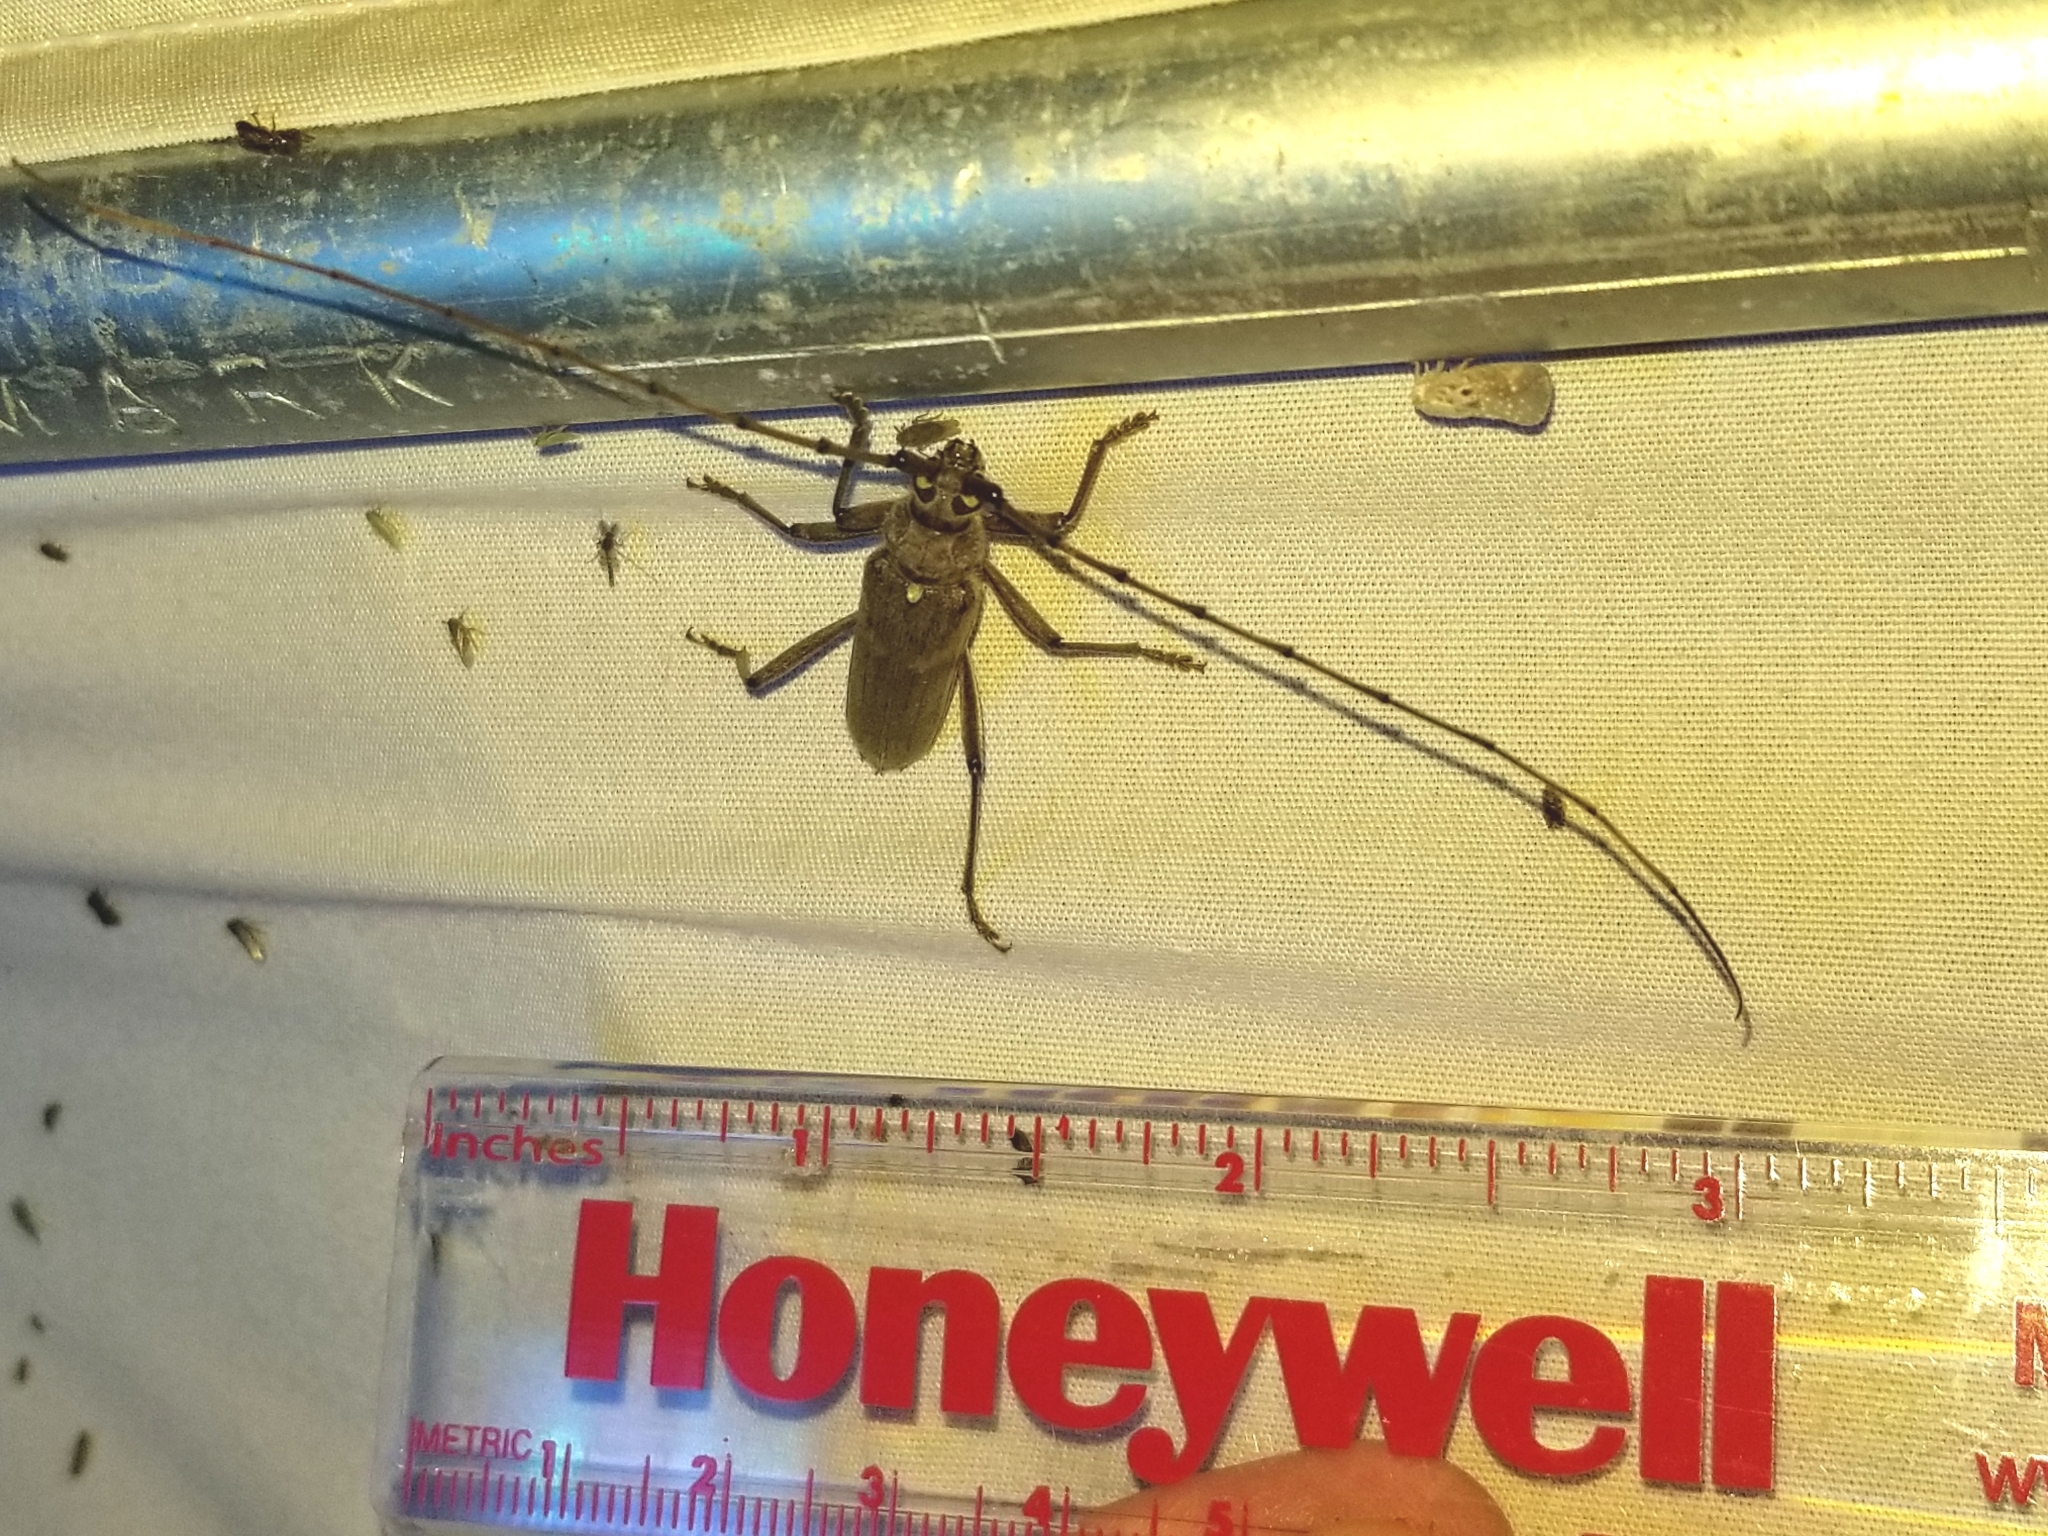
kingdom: Animalia
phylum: Arthropoda
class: Insecta
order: Coleoptera
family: Cerambycidae
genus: Knulliana
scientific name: Knulliana cincta
